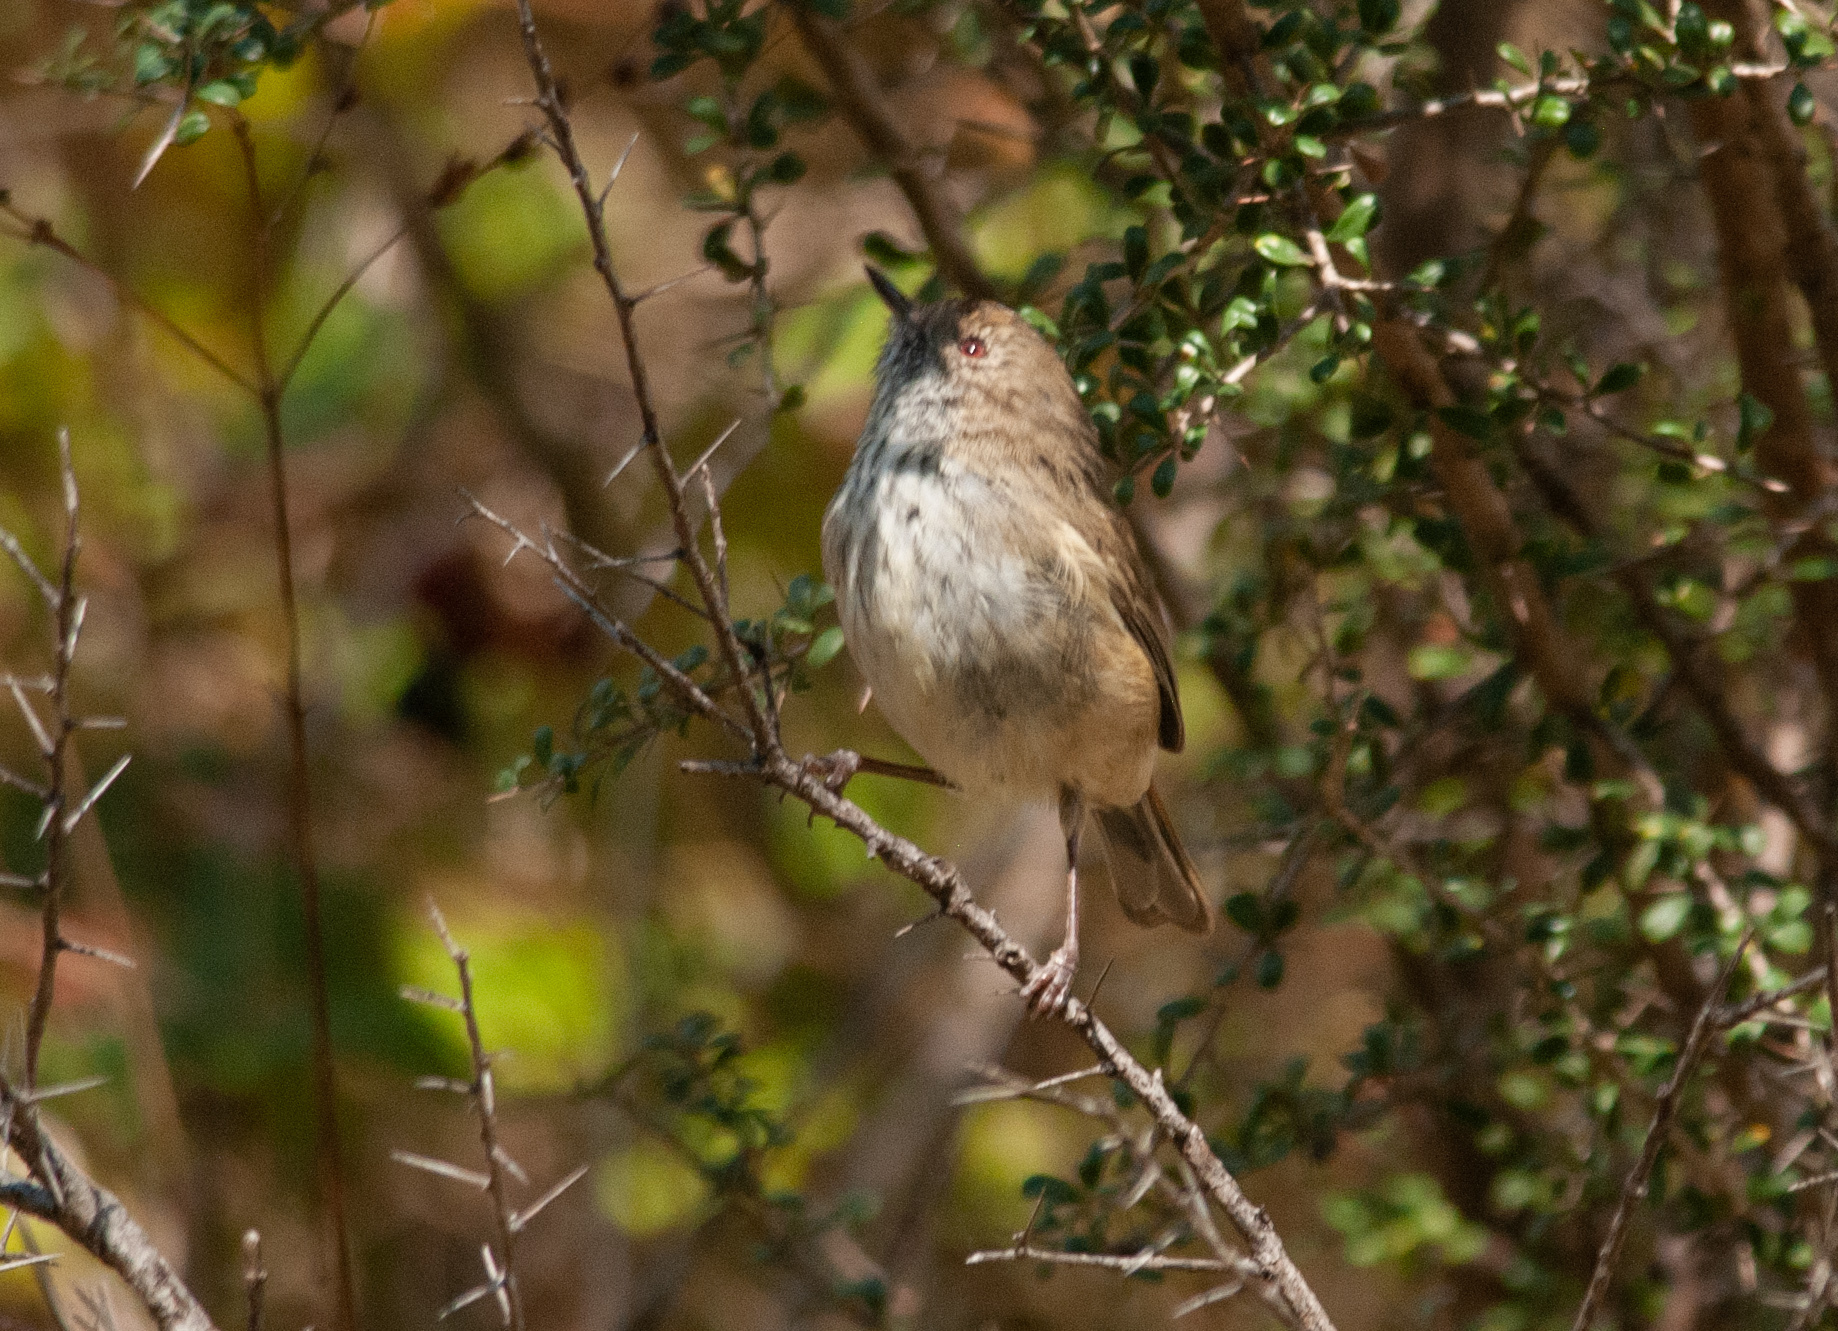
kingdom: Animalia
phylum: Chordata
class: Aves
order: Passeriformes
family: Acanthizidae
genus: Acanthiza
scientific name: Acanthiza pusilla
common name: Brown thornbill
